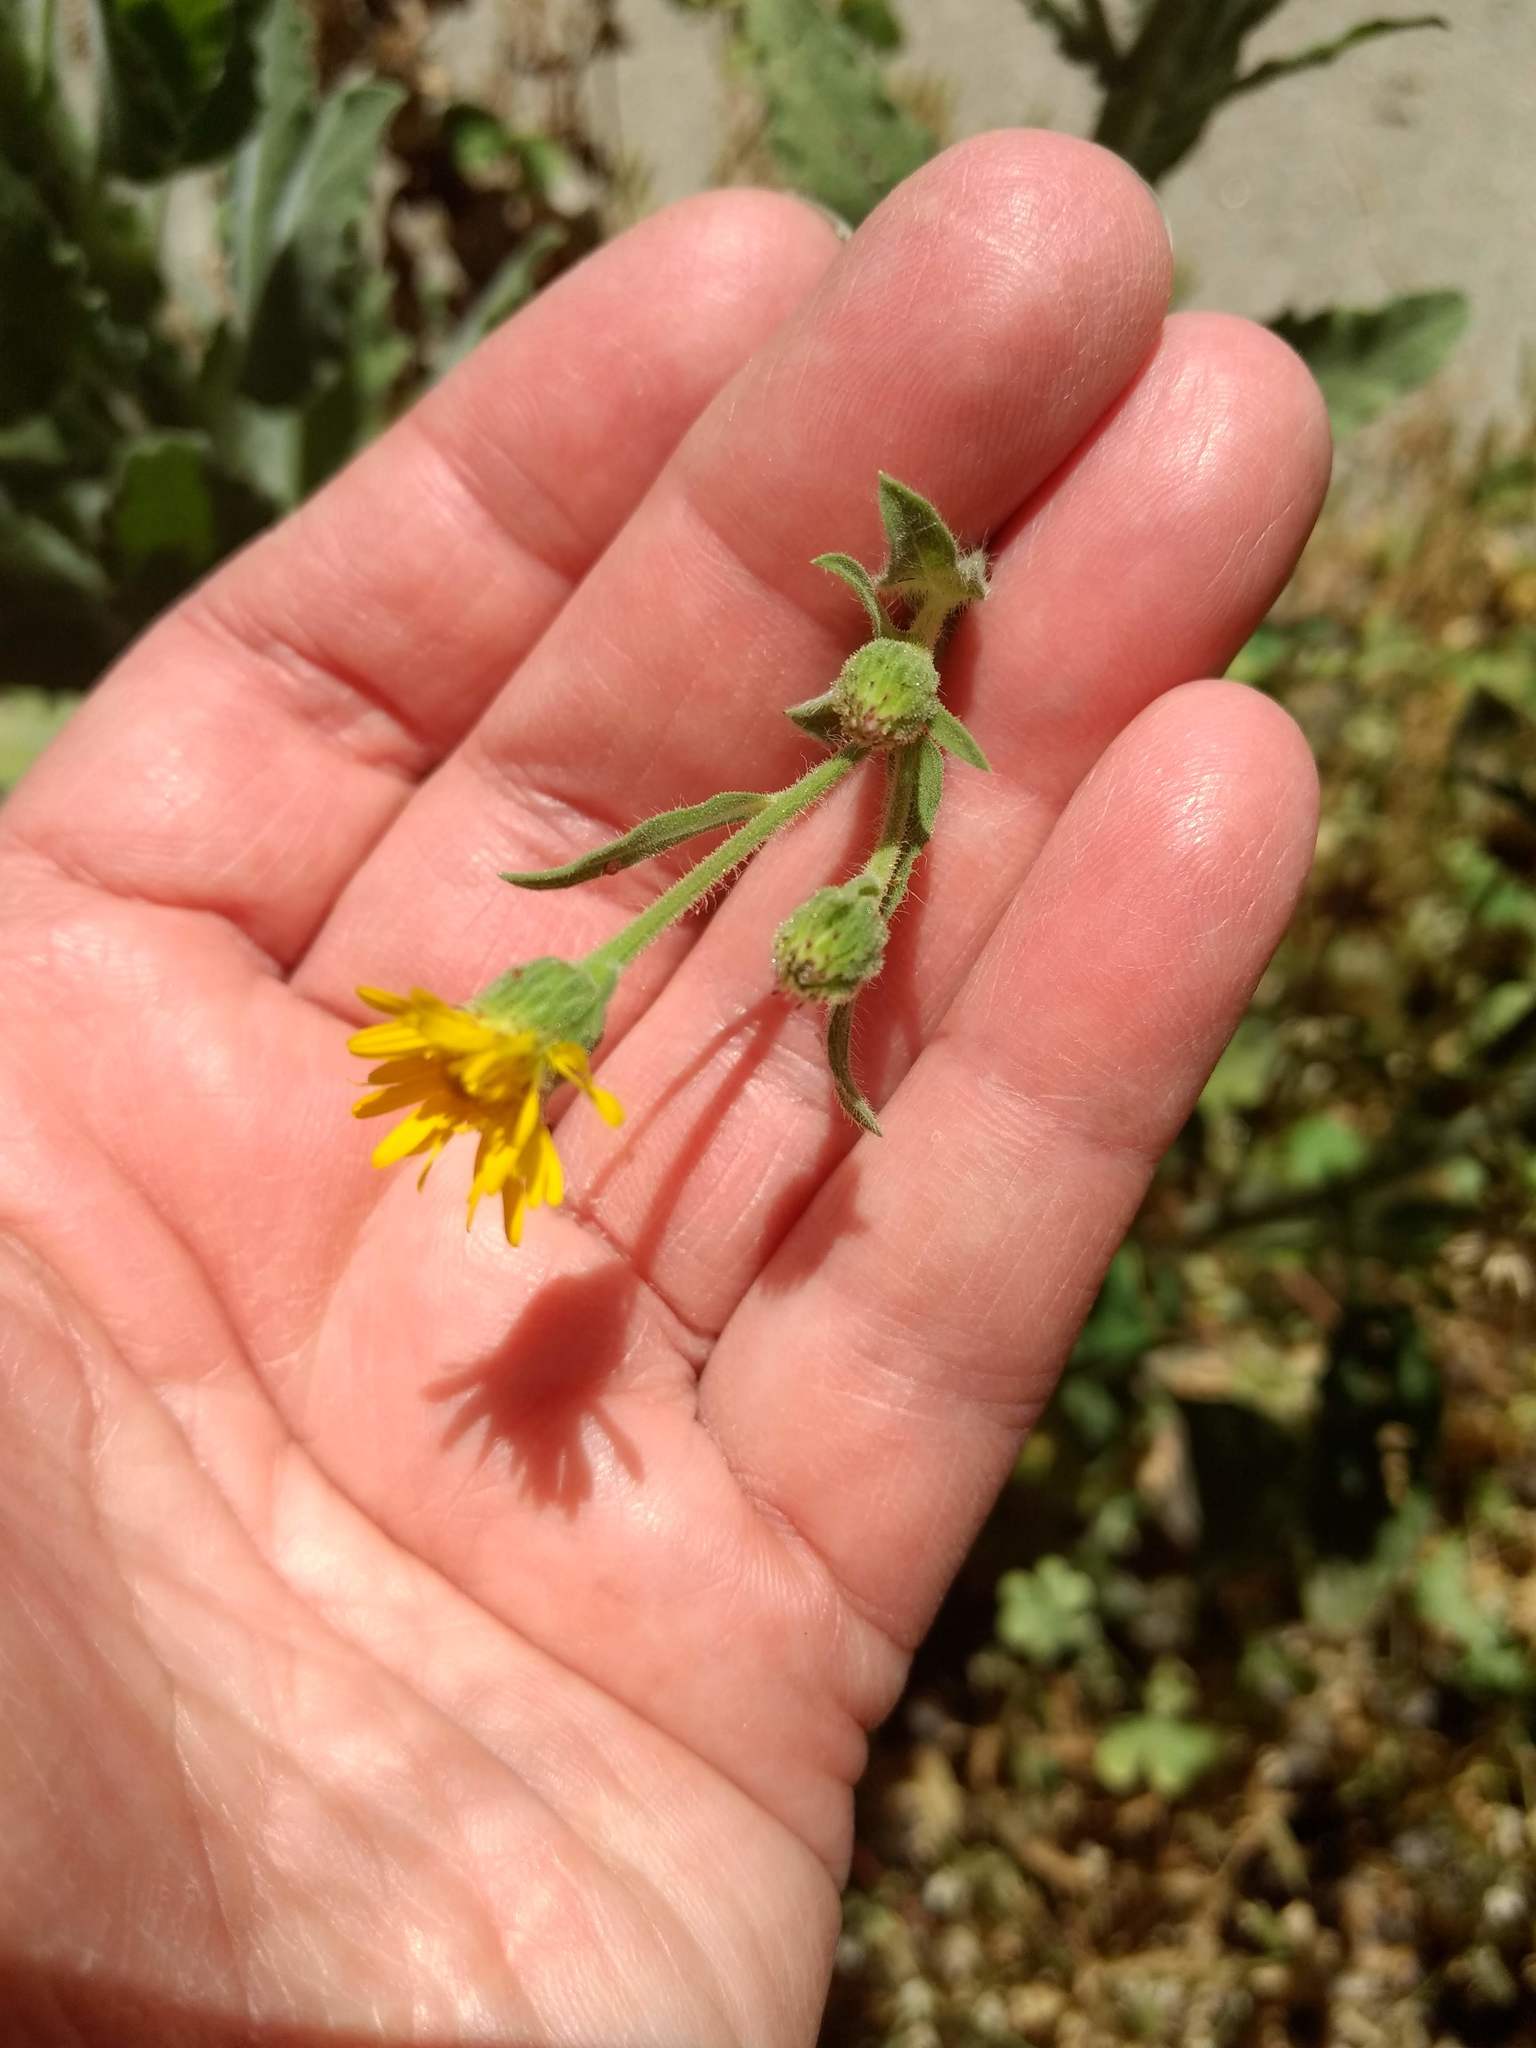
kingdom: Plantae
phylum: Tracheophyta
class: Magnoliopsida
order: Asterales
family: Asteraceae
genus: Heterotheca
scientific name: Heterotheca grandiflora
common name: Telegraphweed
